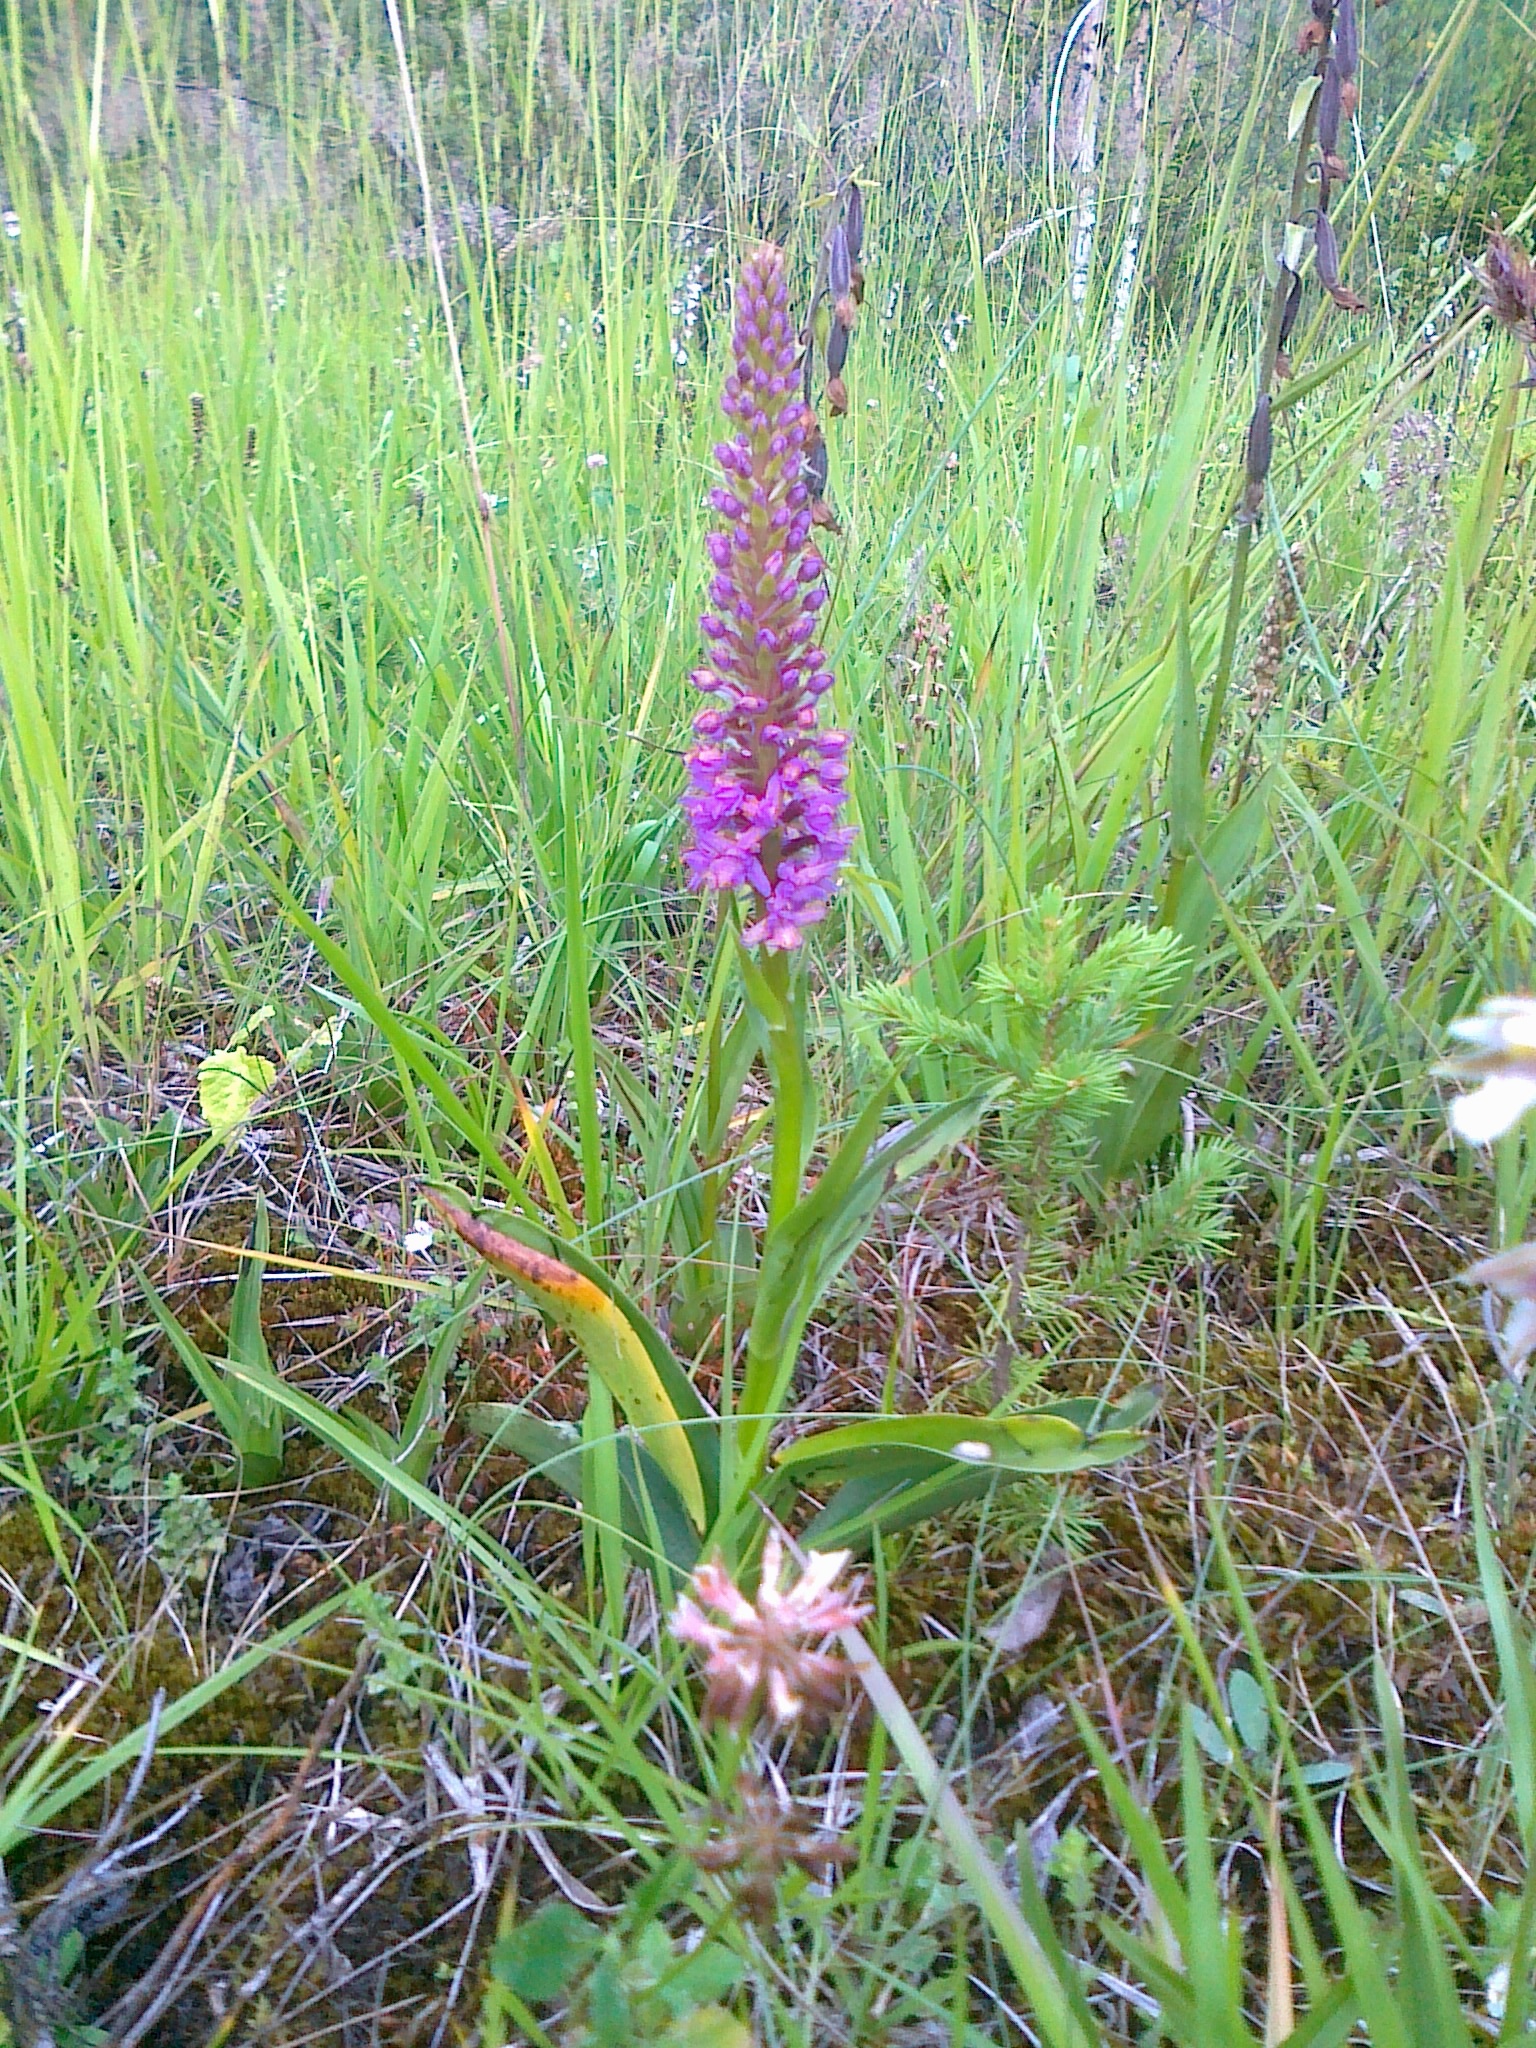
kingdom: Plantae
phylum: Tracheophyta
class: Liliopsida
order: Asparagales
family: Orchidaceae
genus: Gymnadenia
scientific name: Gymnadenia densiflora
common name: Marsh fragrant-orchid
